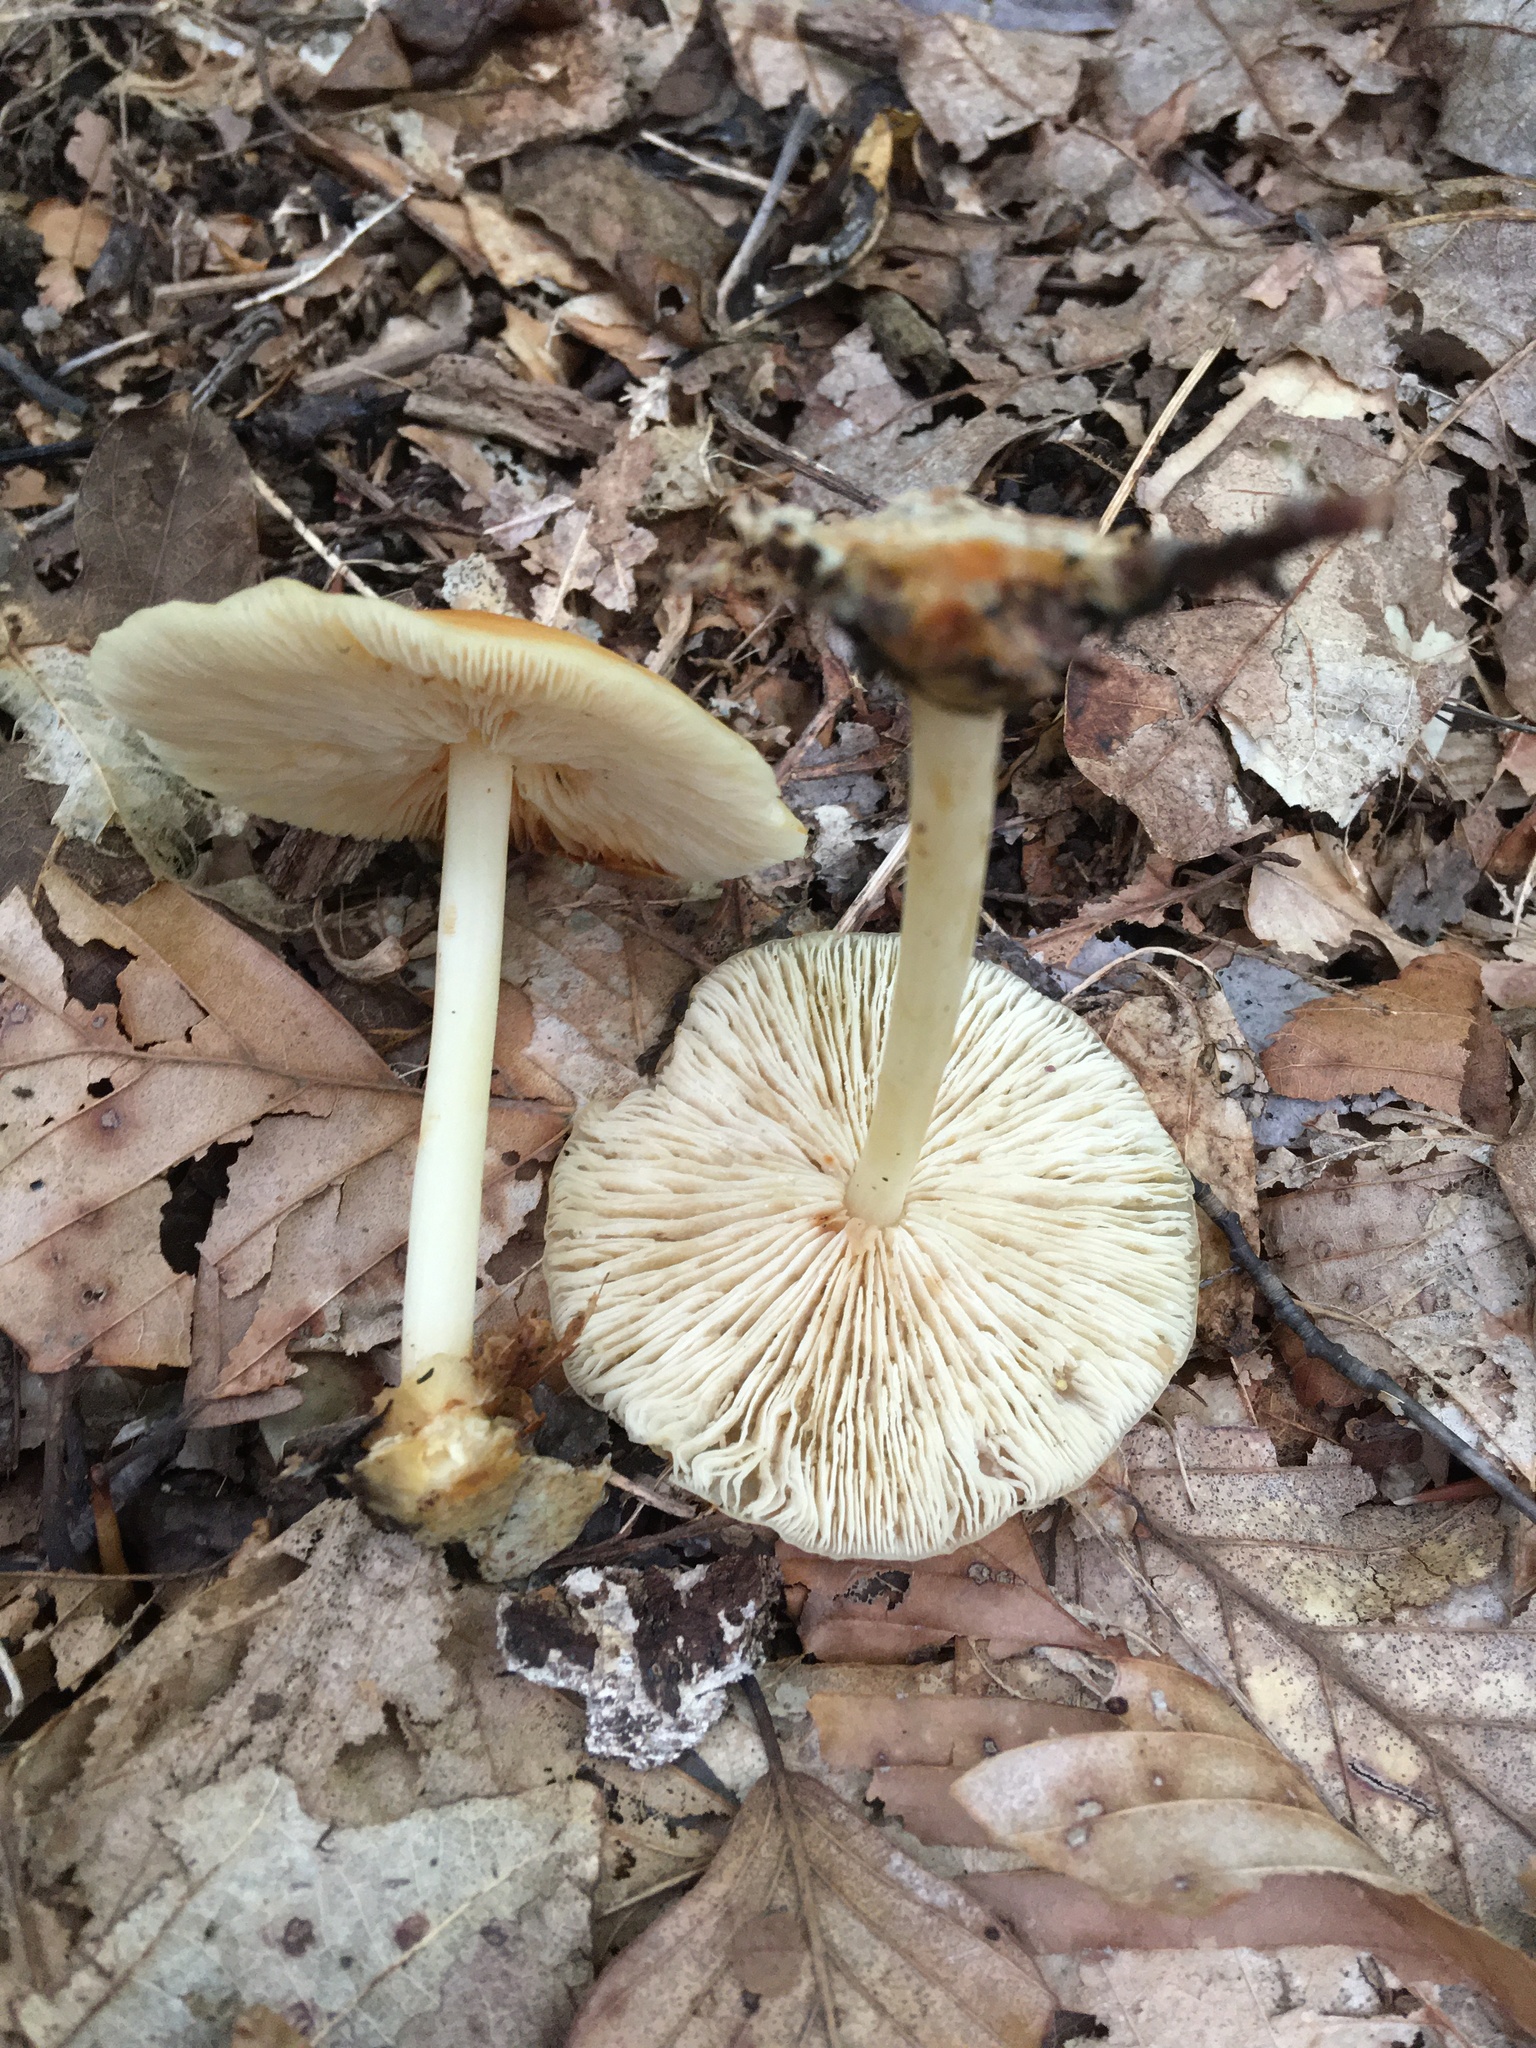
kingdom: Fungi
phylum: Basidiomycota
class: Agaricomycetes
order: Agaricales
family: Marasmiaceae
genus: Marasmius
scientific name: Marasmius strictipes
